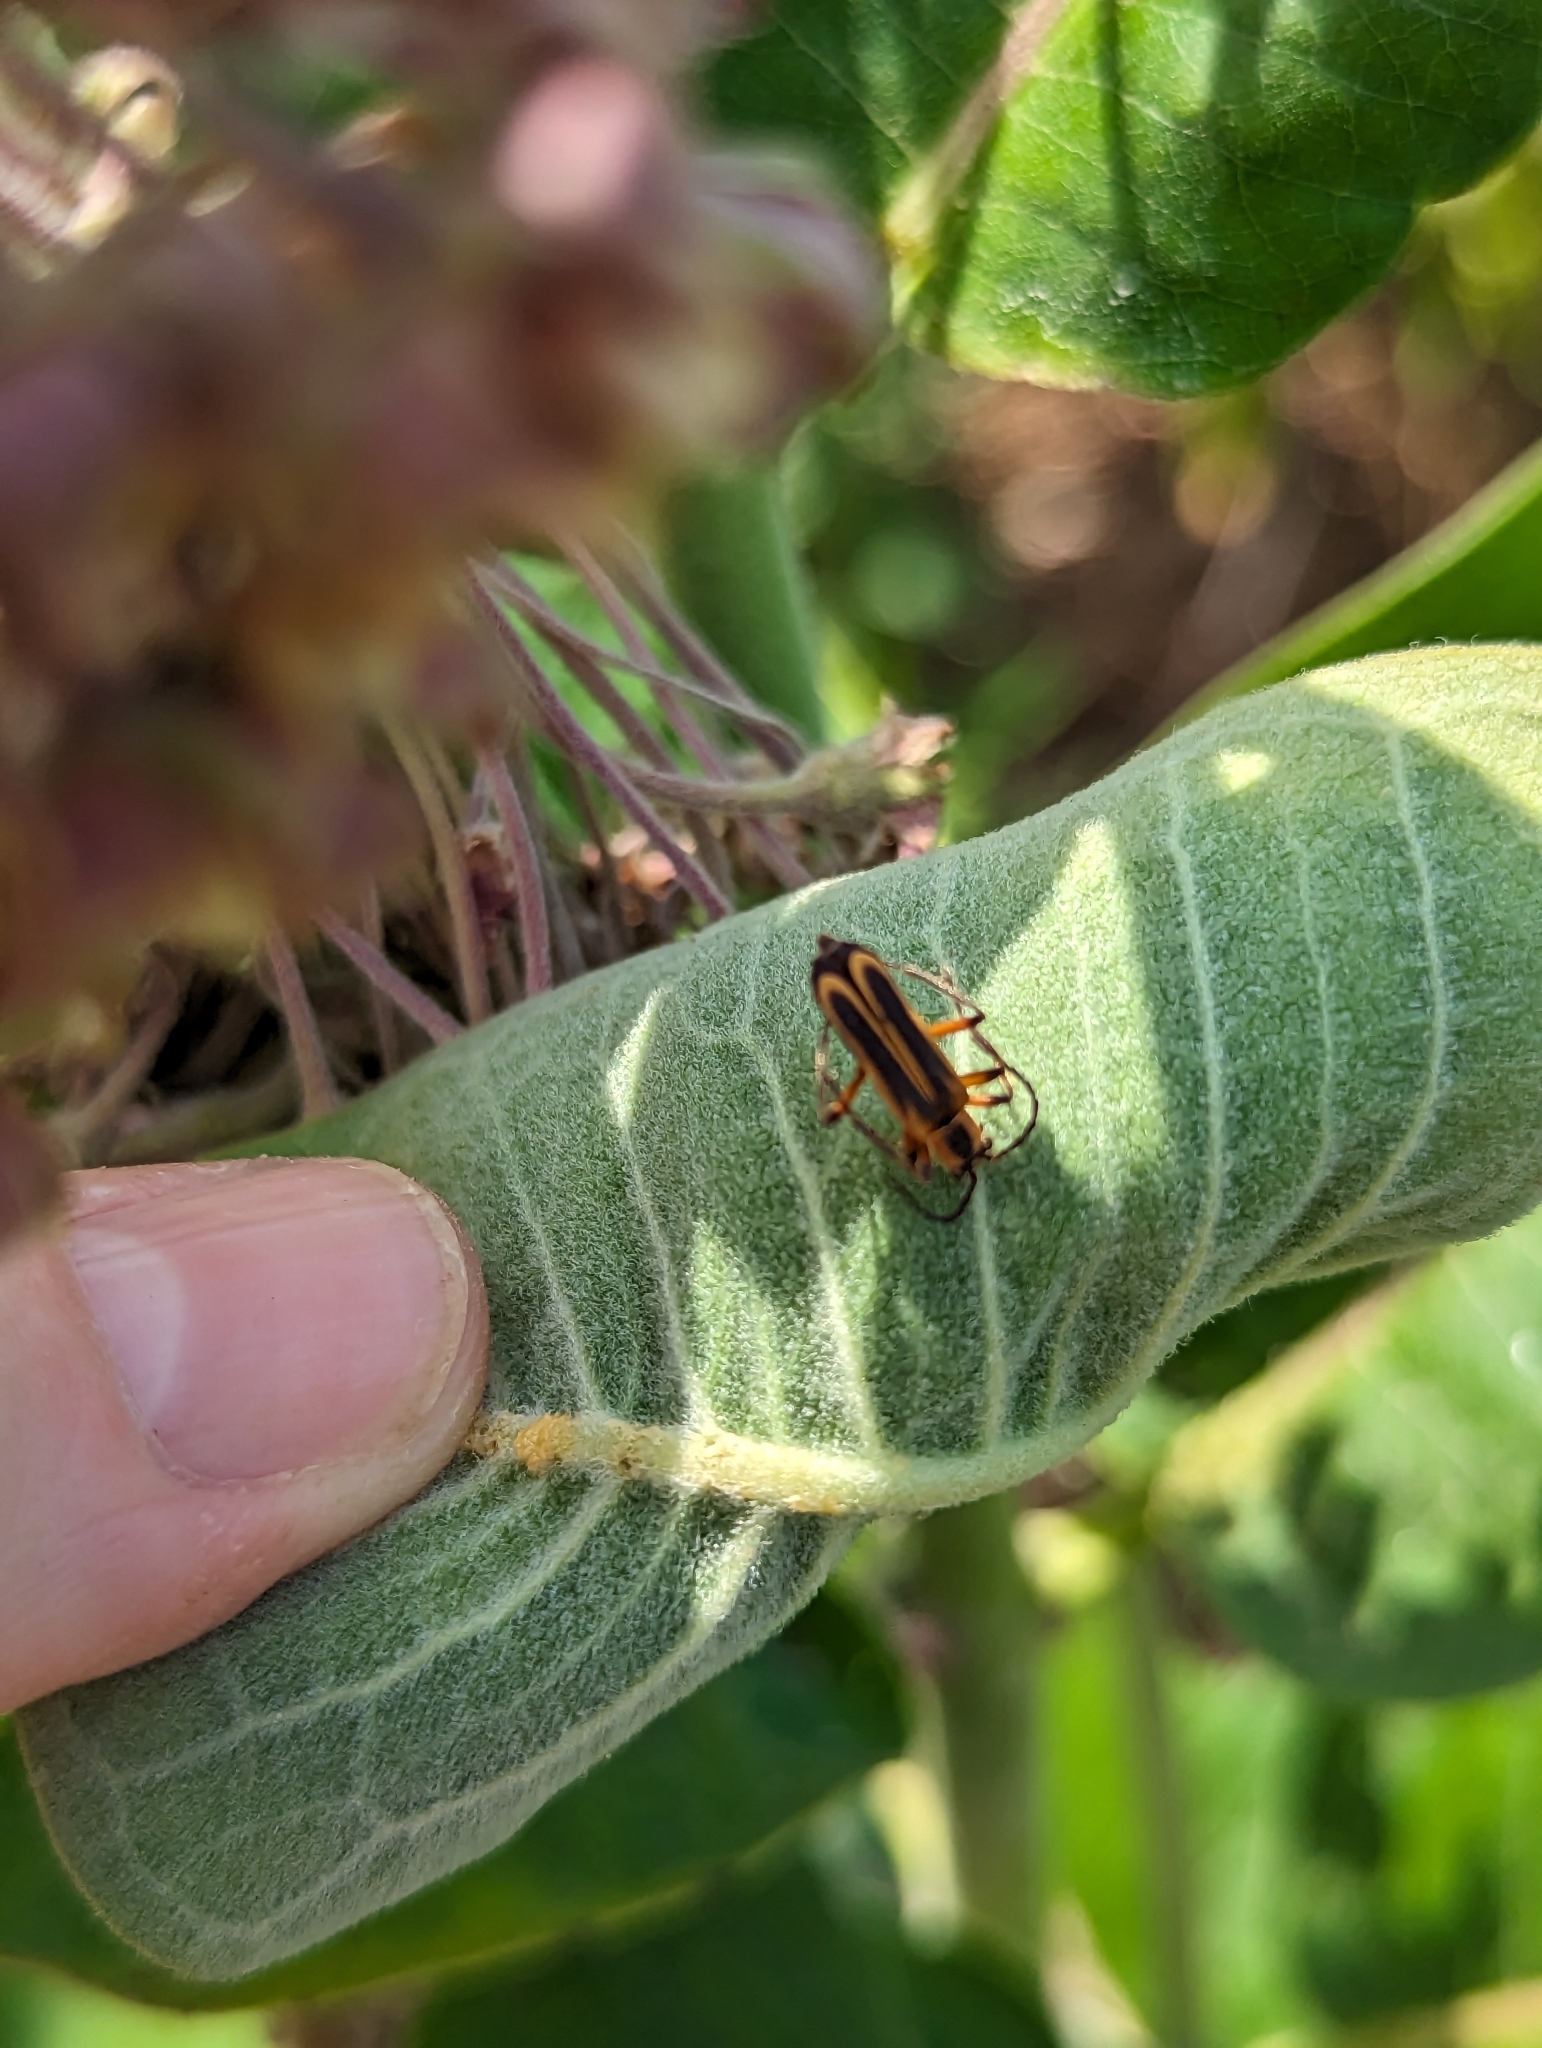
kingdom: Animalia
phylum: Arthropoda
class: Insecta
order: Coleoptera
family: Cantharidae
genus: Chauliognathus
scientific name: Chauliognathus marginatus
